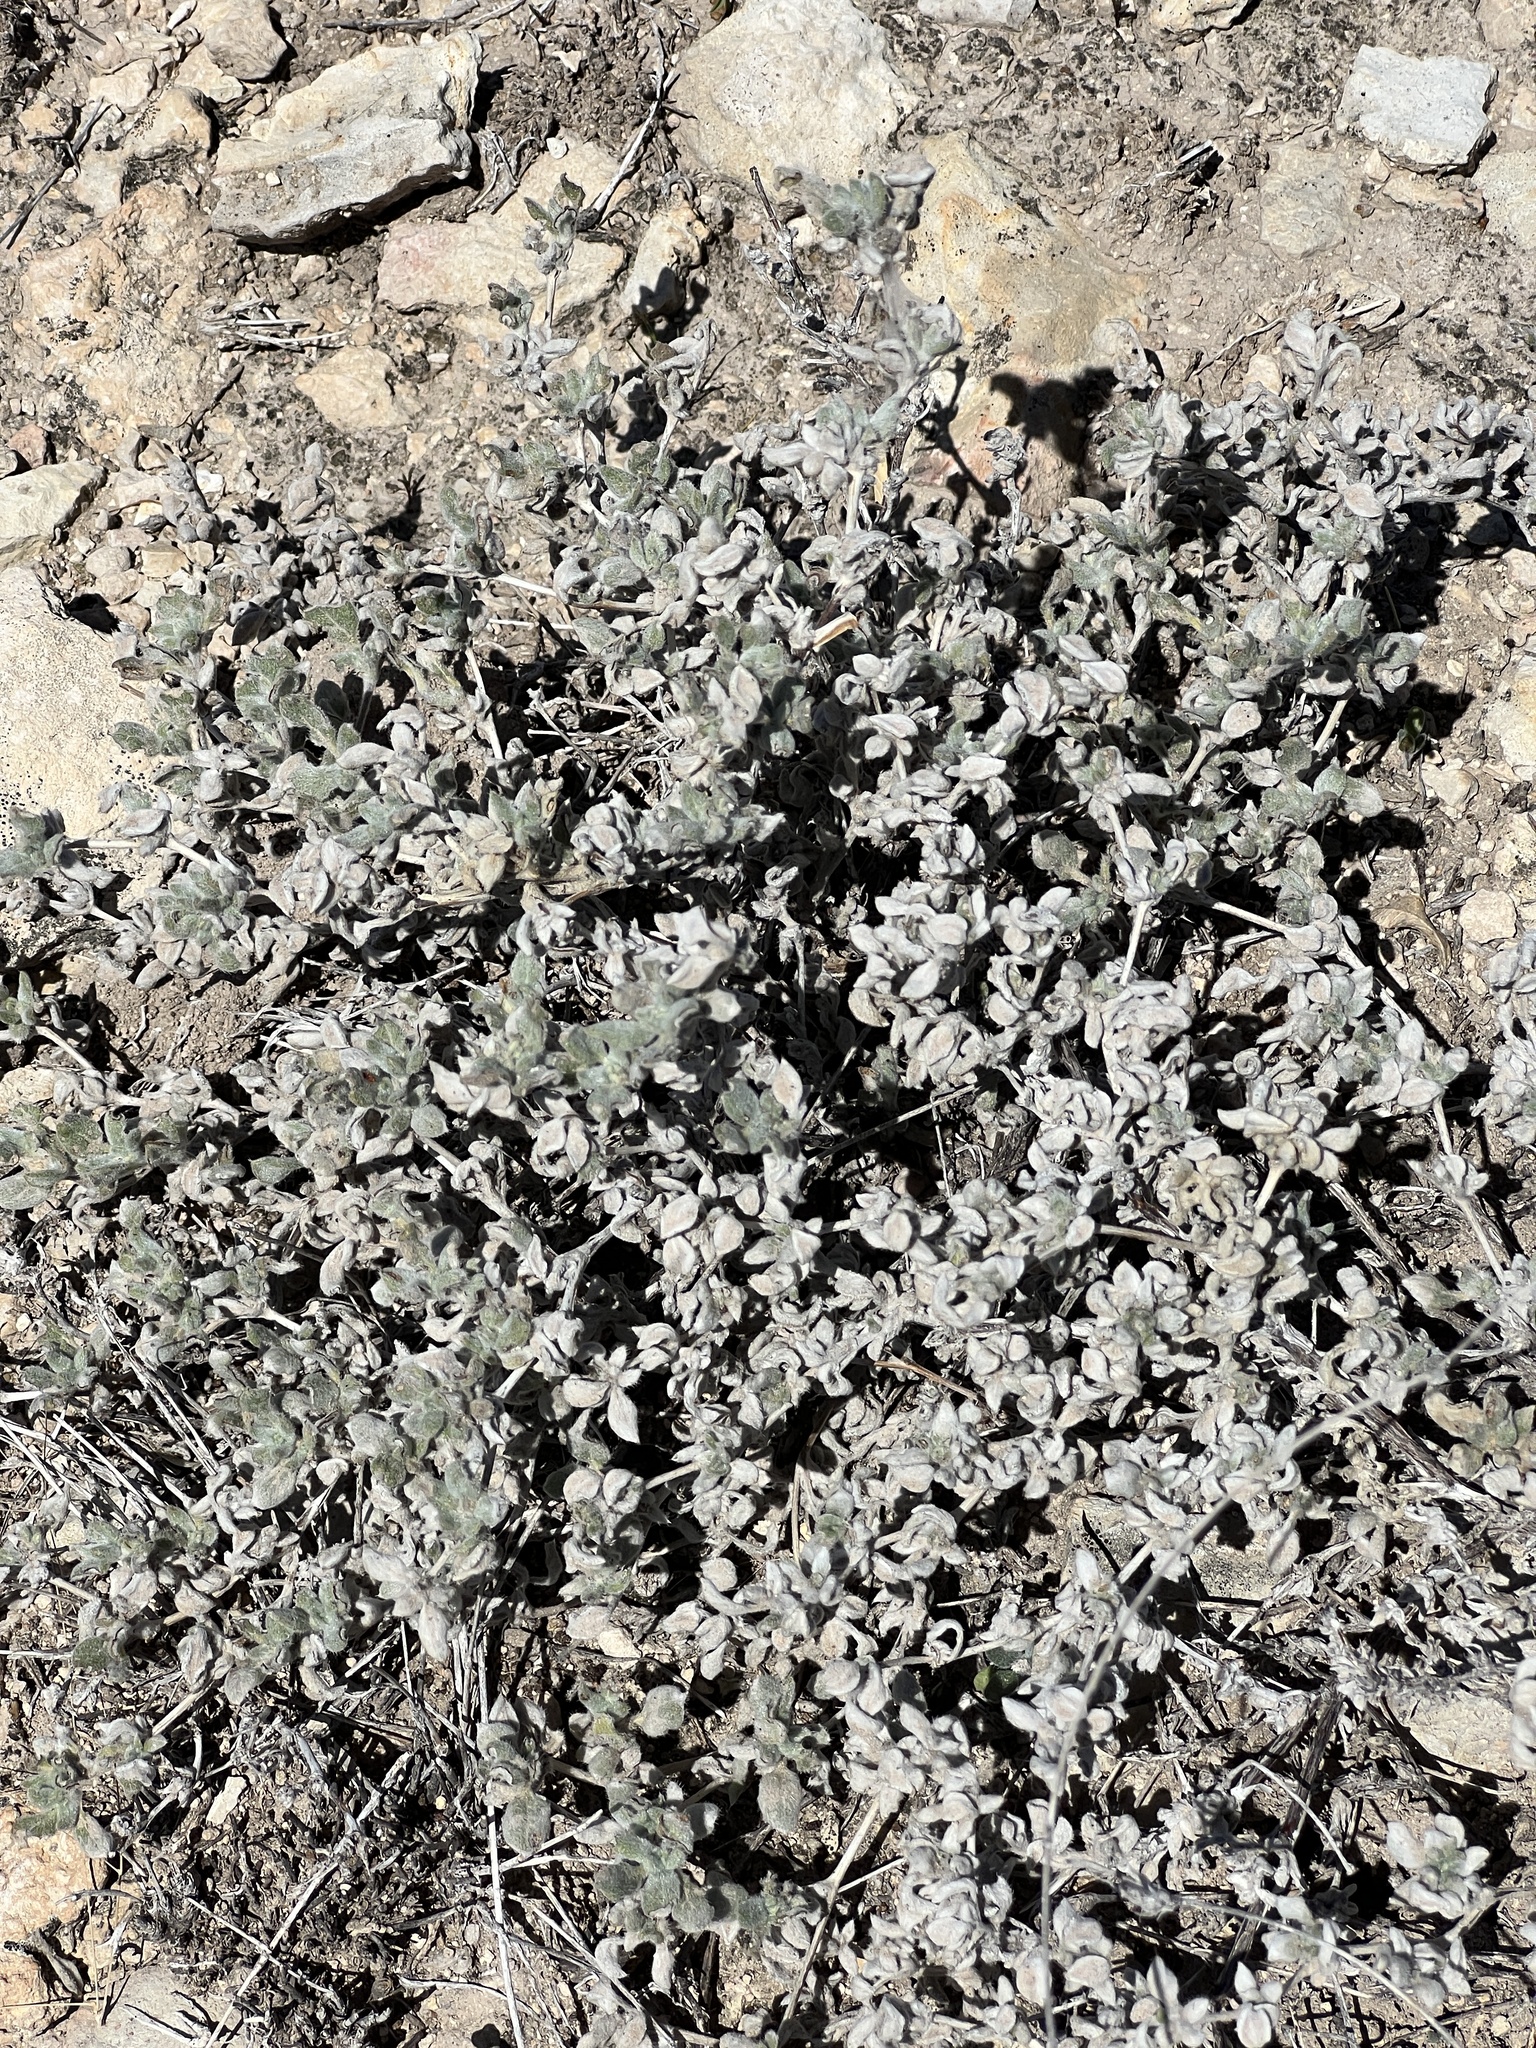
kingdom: Plantae
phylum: Tracheophyta
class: Magnoliopsida
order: Boraginales
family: Ehretiaceae
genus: Tiquilia
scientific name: Tiquilia canescens
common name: Hairy tiquilia
